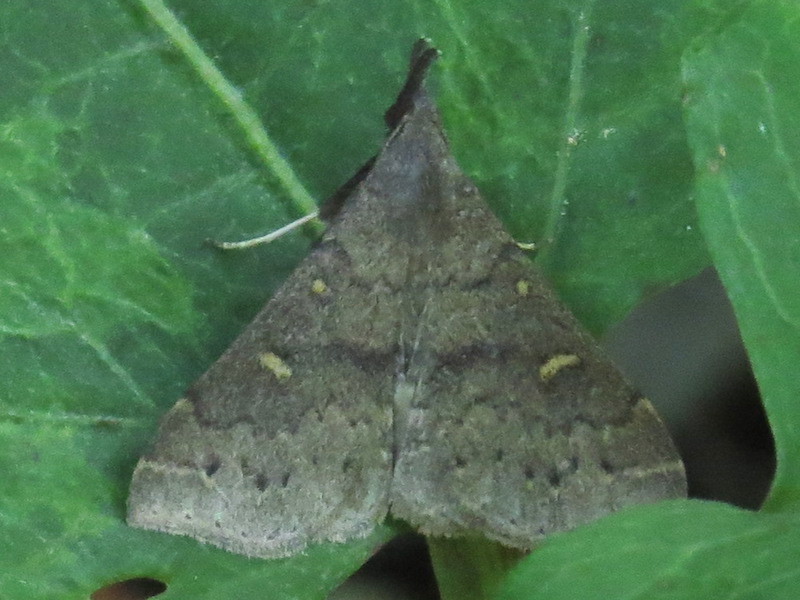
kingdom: Animalia
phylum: Arthropoda
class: Insecta
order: Lepidoptera
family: Erebidae
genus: Renia
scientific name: Renia adspergillus
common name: Speckled renia moth
